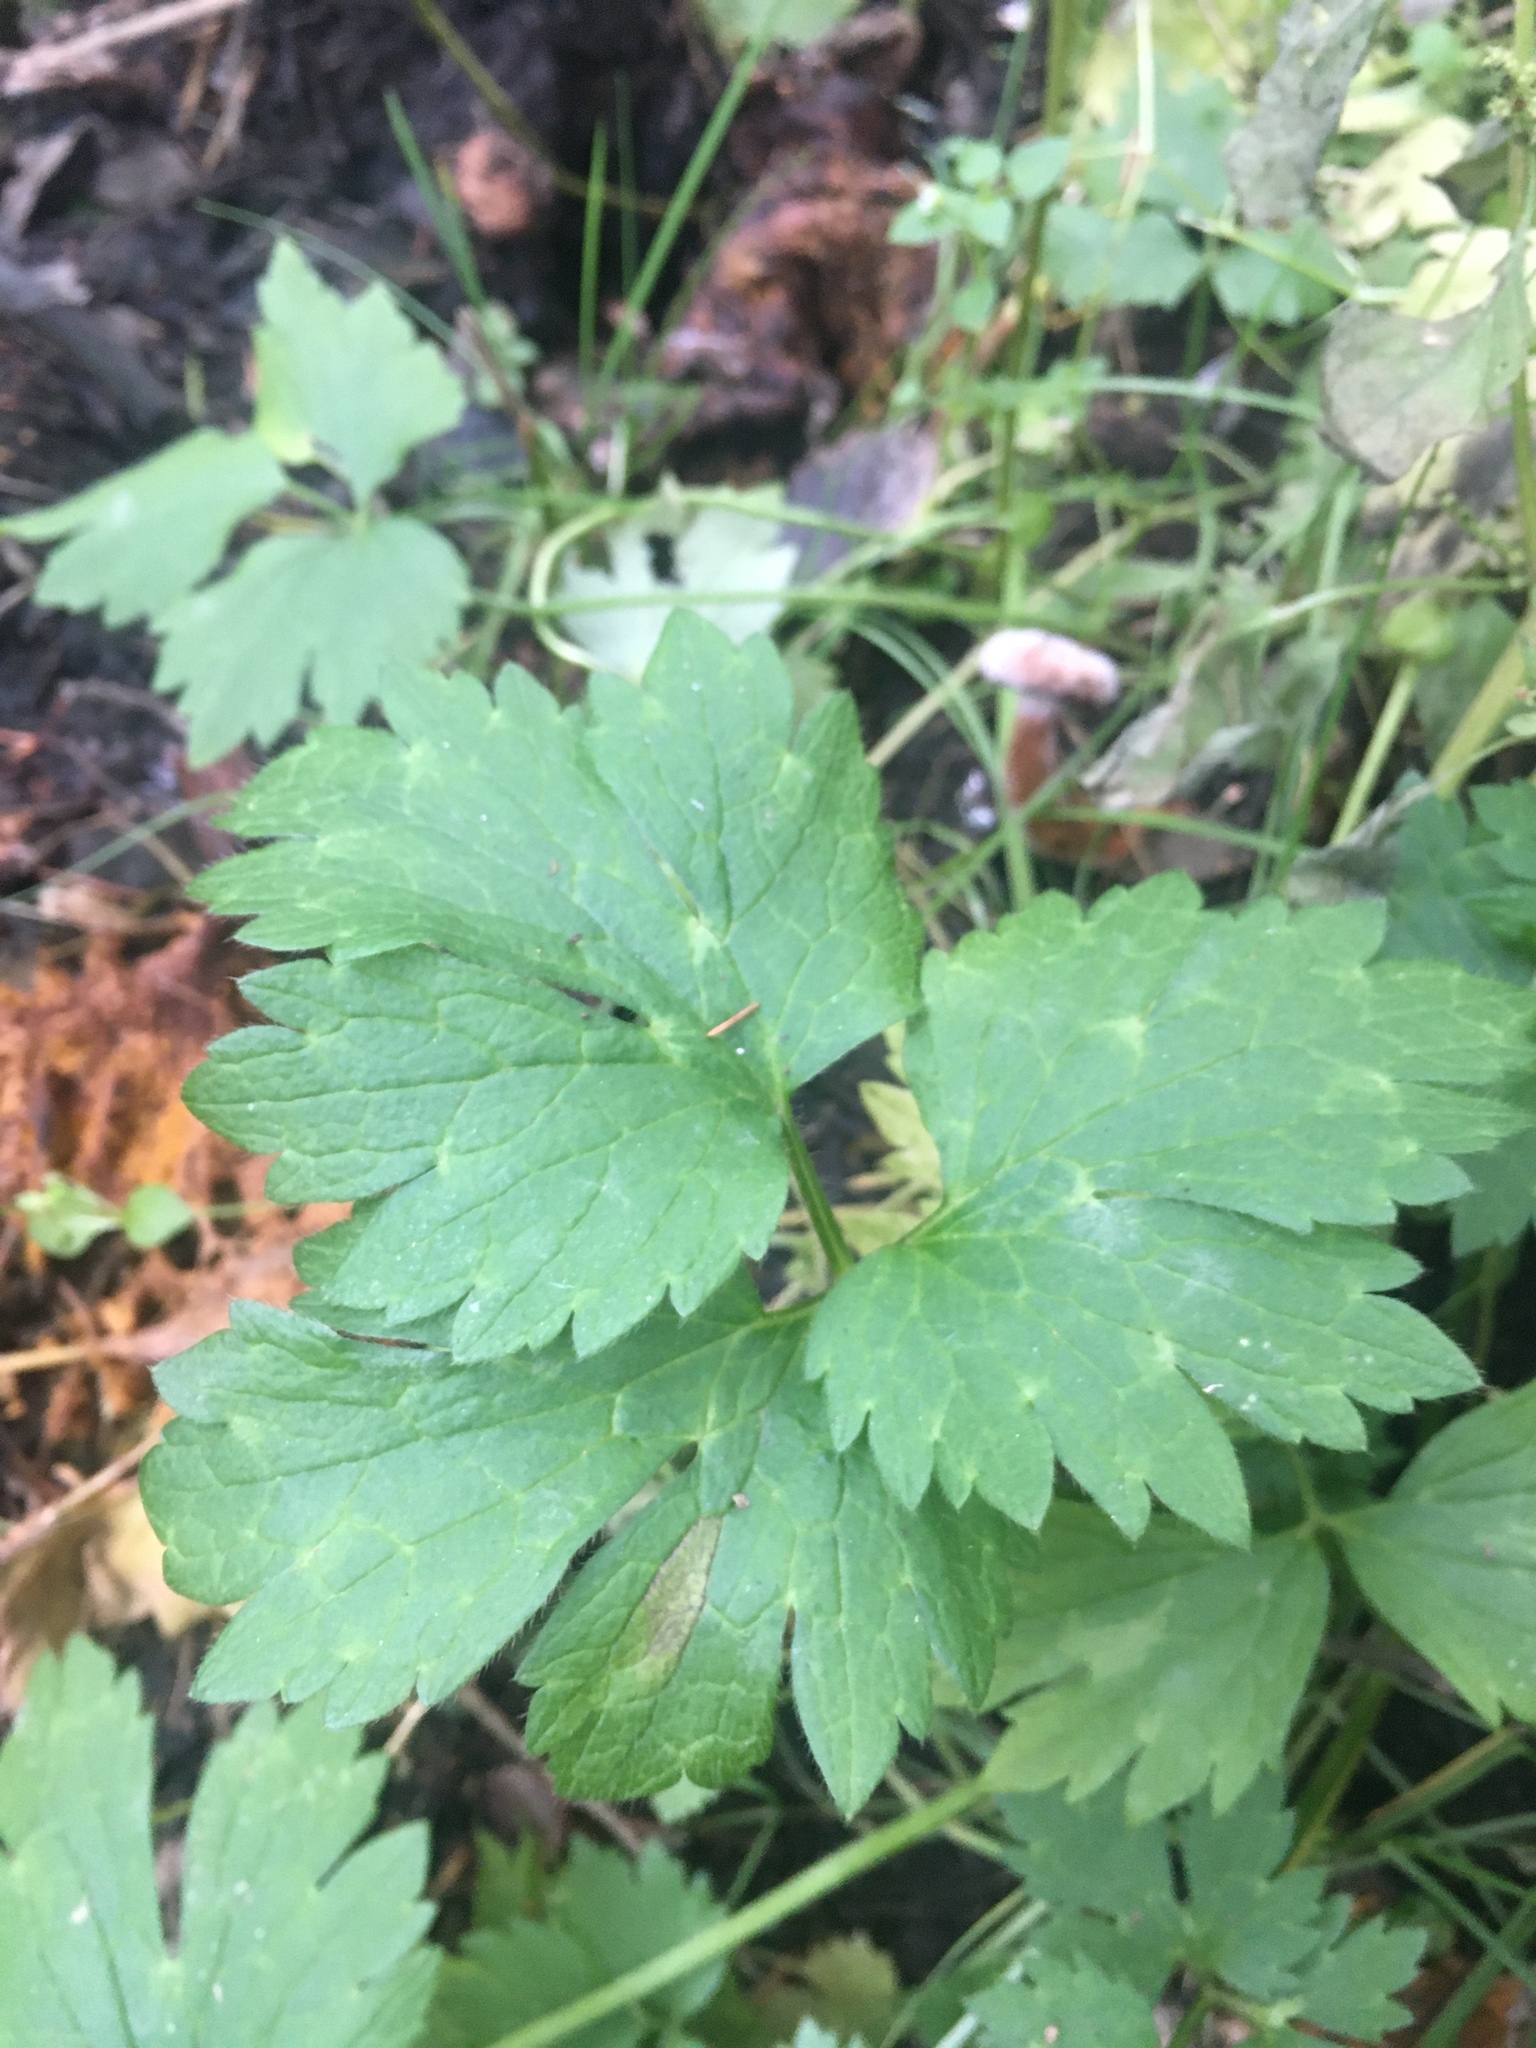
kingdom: Plantae
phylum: Tracheophyta
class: Magnoliopsida
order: Ranunculales
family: Ranunculaceae
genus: Ranunculus
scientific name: Ranunculus repens
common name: Creeping buttercup
